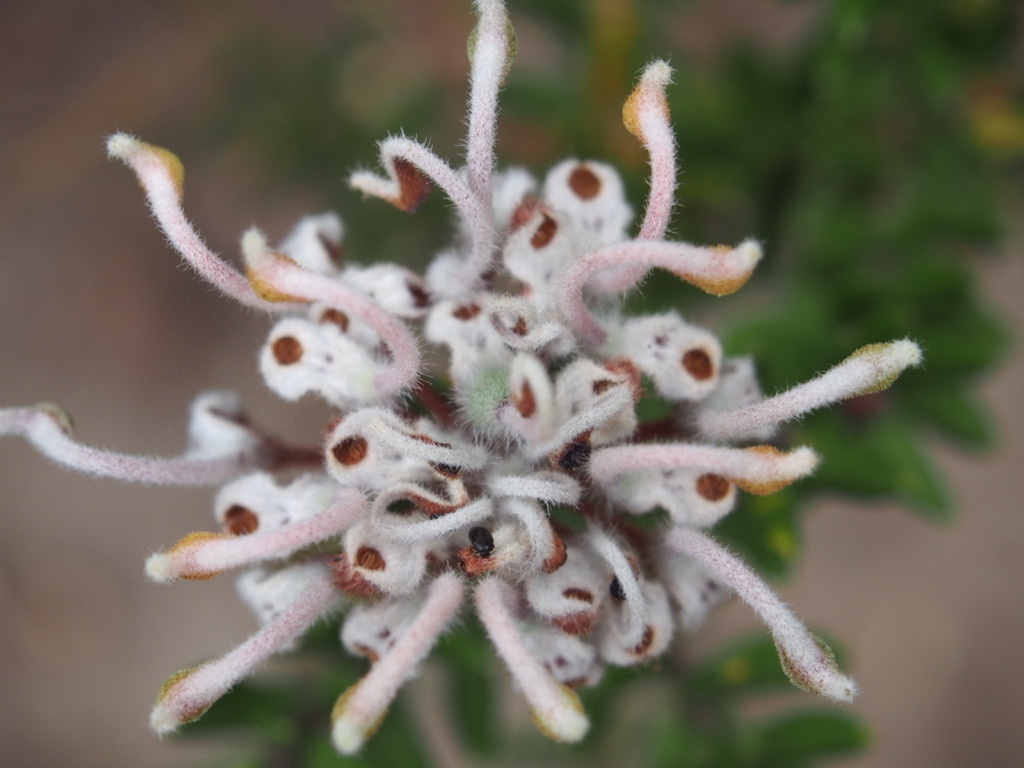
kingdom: Plantae
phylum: Tracheophyta
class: Magnoliopsida
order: Proteales
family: Proteaceae
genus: Grevillea
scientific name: Grevillea buxifolia
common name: Grey spiderflower
